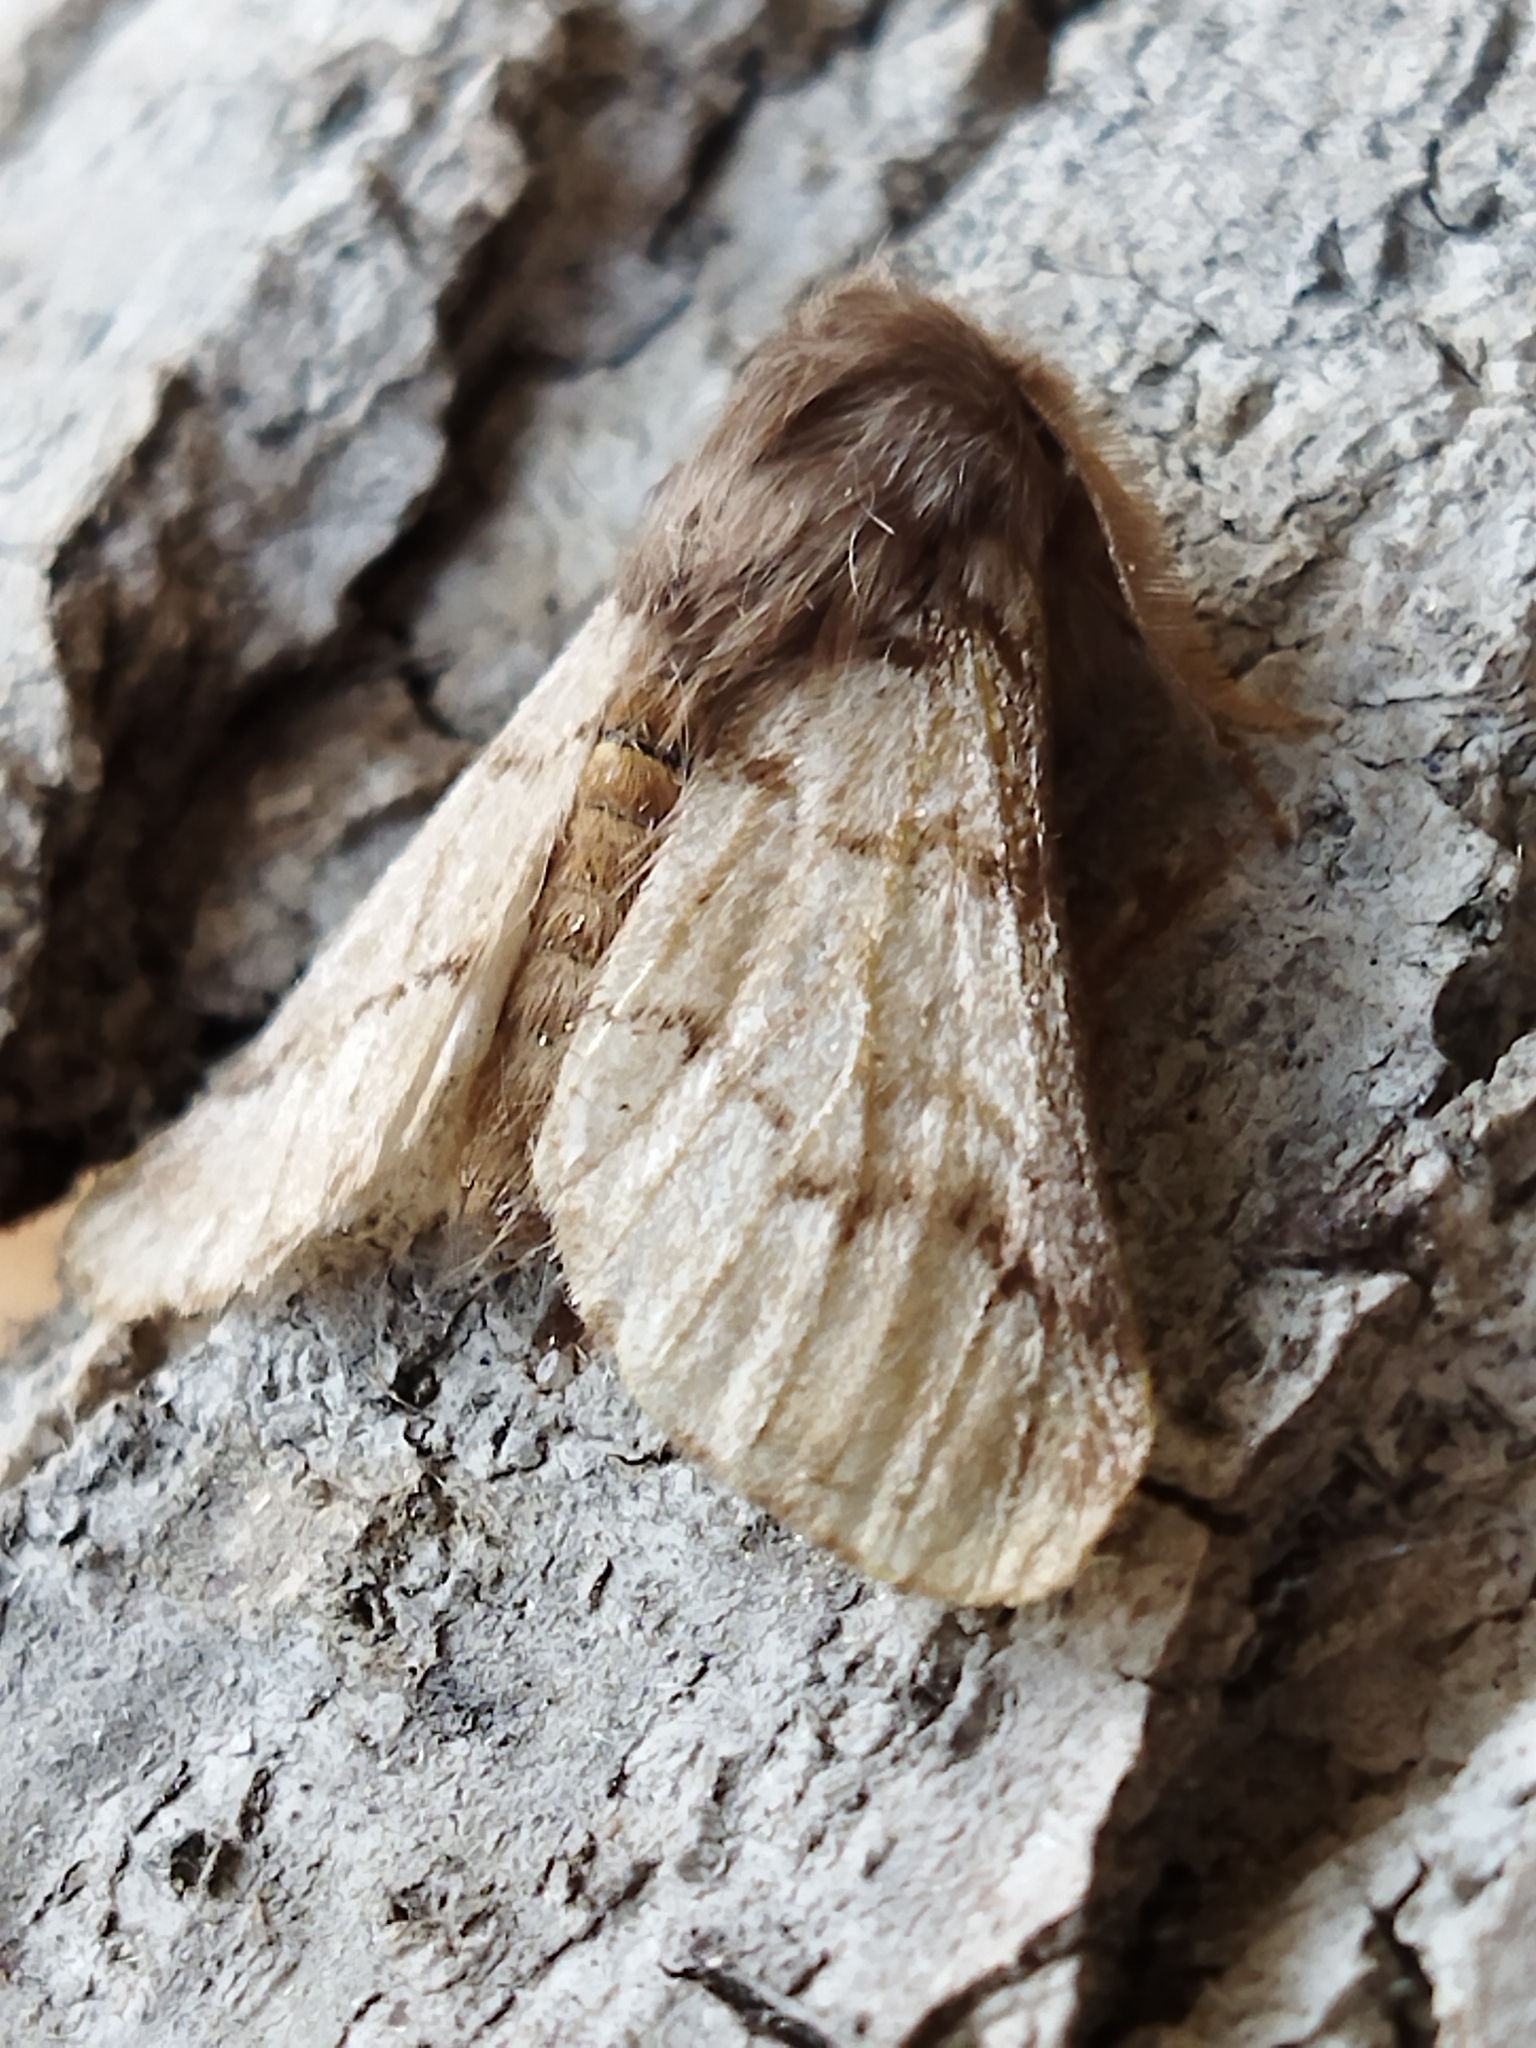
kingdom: Animalia
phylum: Arthropoda
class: Insecta
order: Lepidoptera
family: Notodontidae
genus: Thaumetopoea
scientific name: Thaumetopoea pityocampa
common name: Pine processionary
